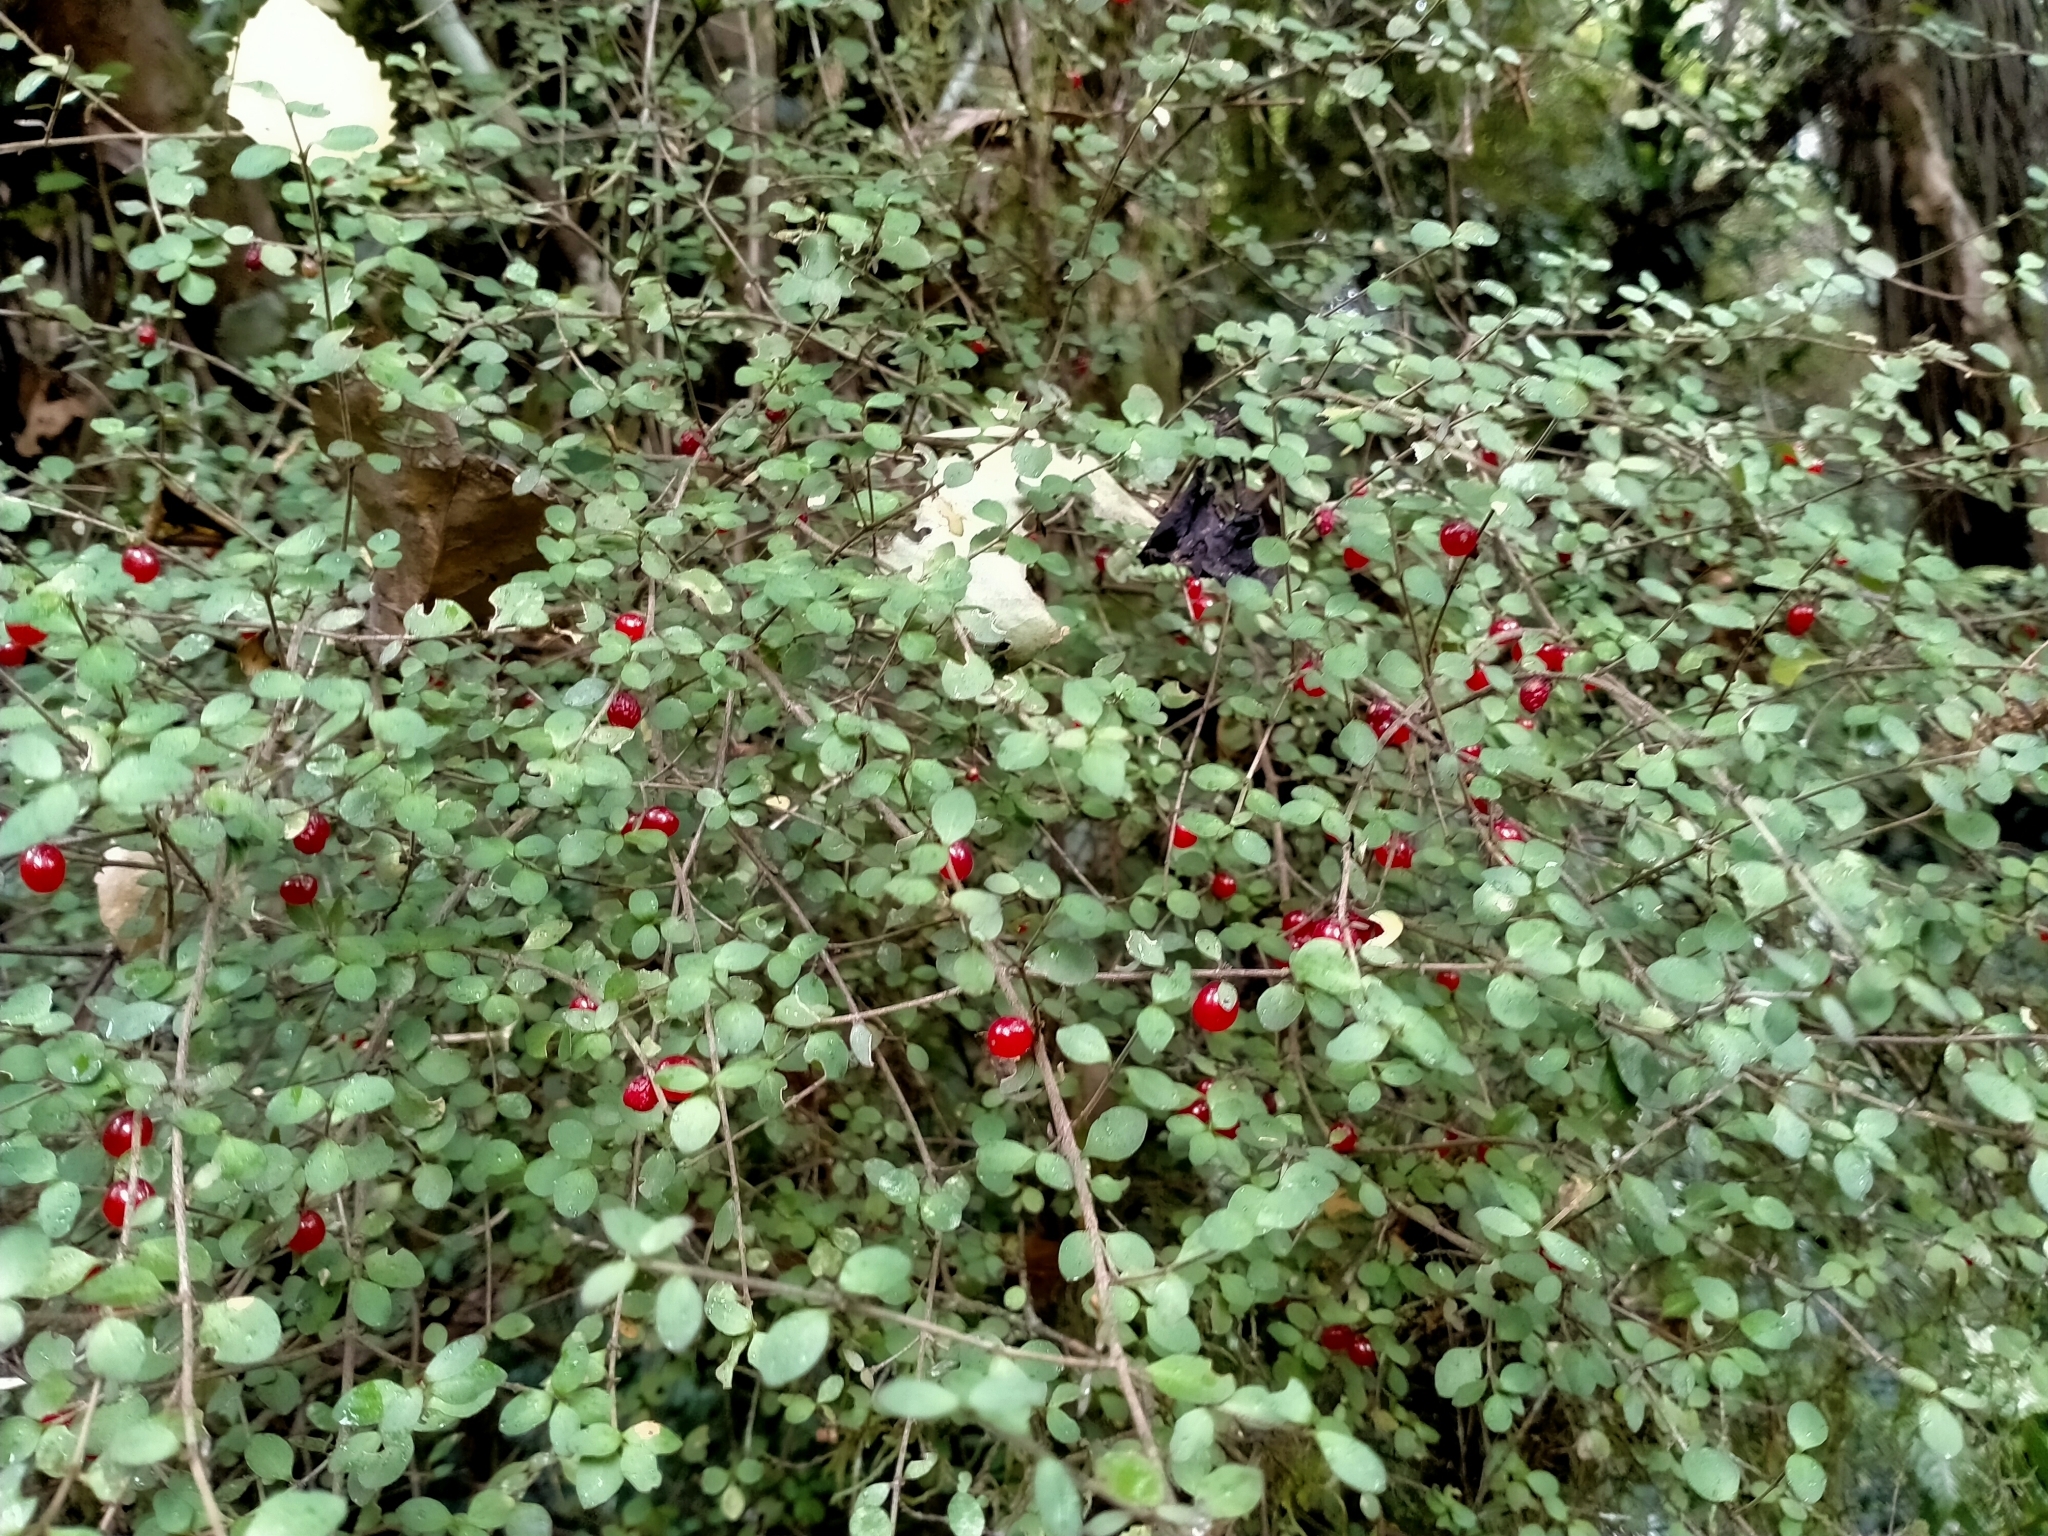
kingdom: Plantae
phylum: Tracheophyta
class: Magnoliopsida
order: Gentianales
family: Rubiaceae
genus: Coprosma
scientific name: Coprosma rhamnoides
